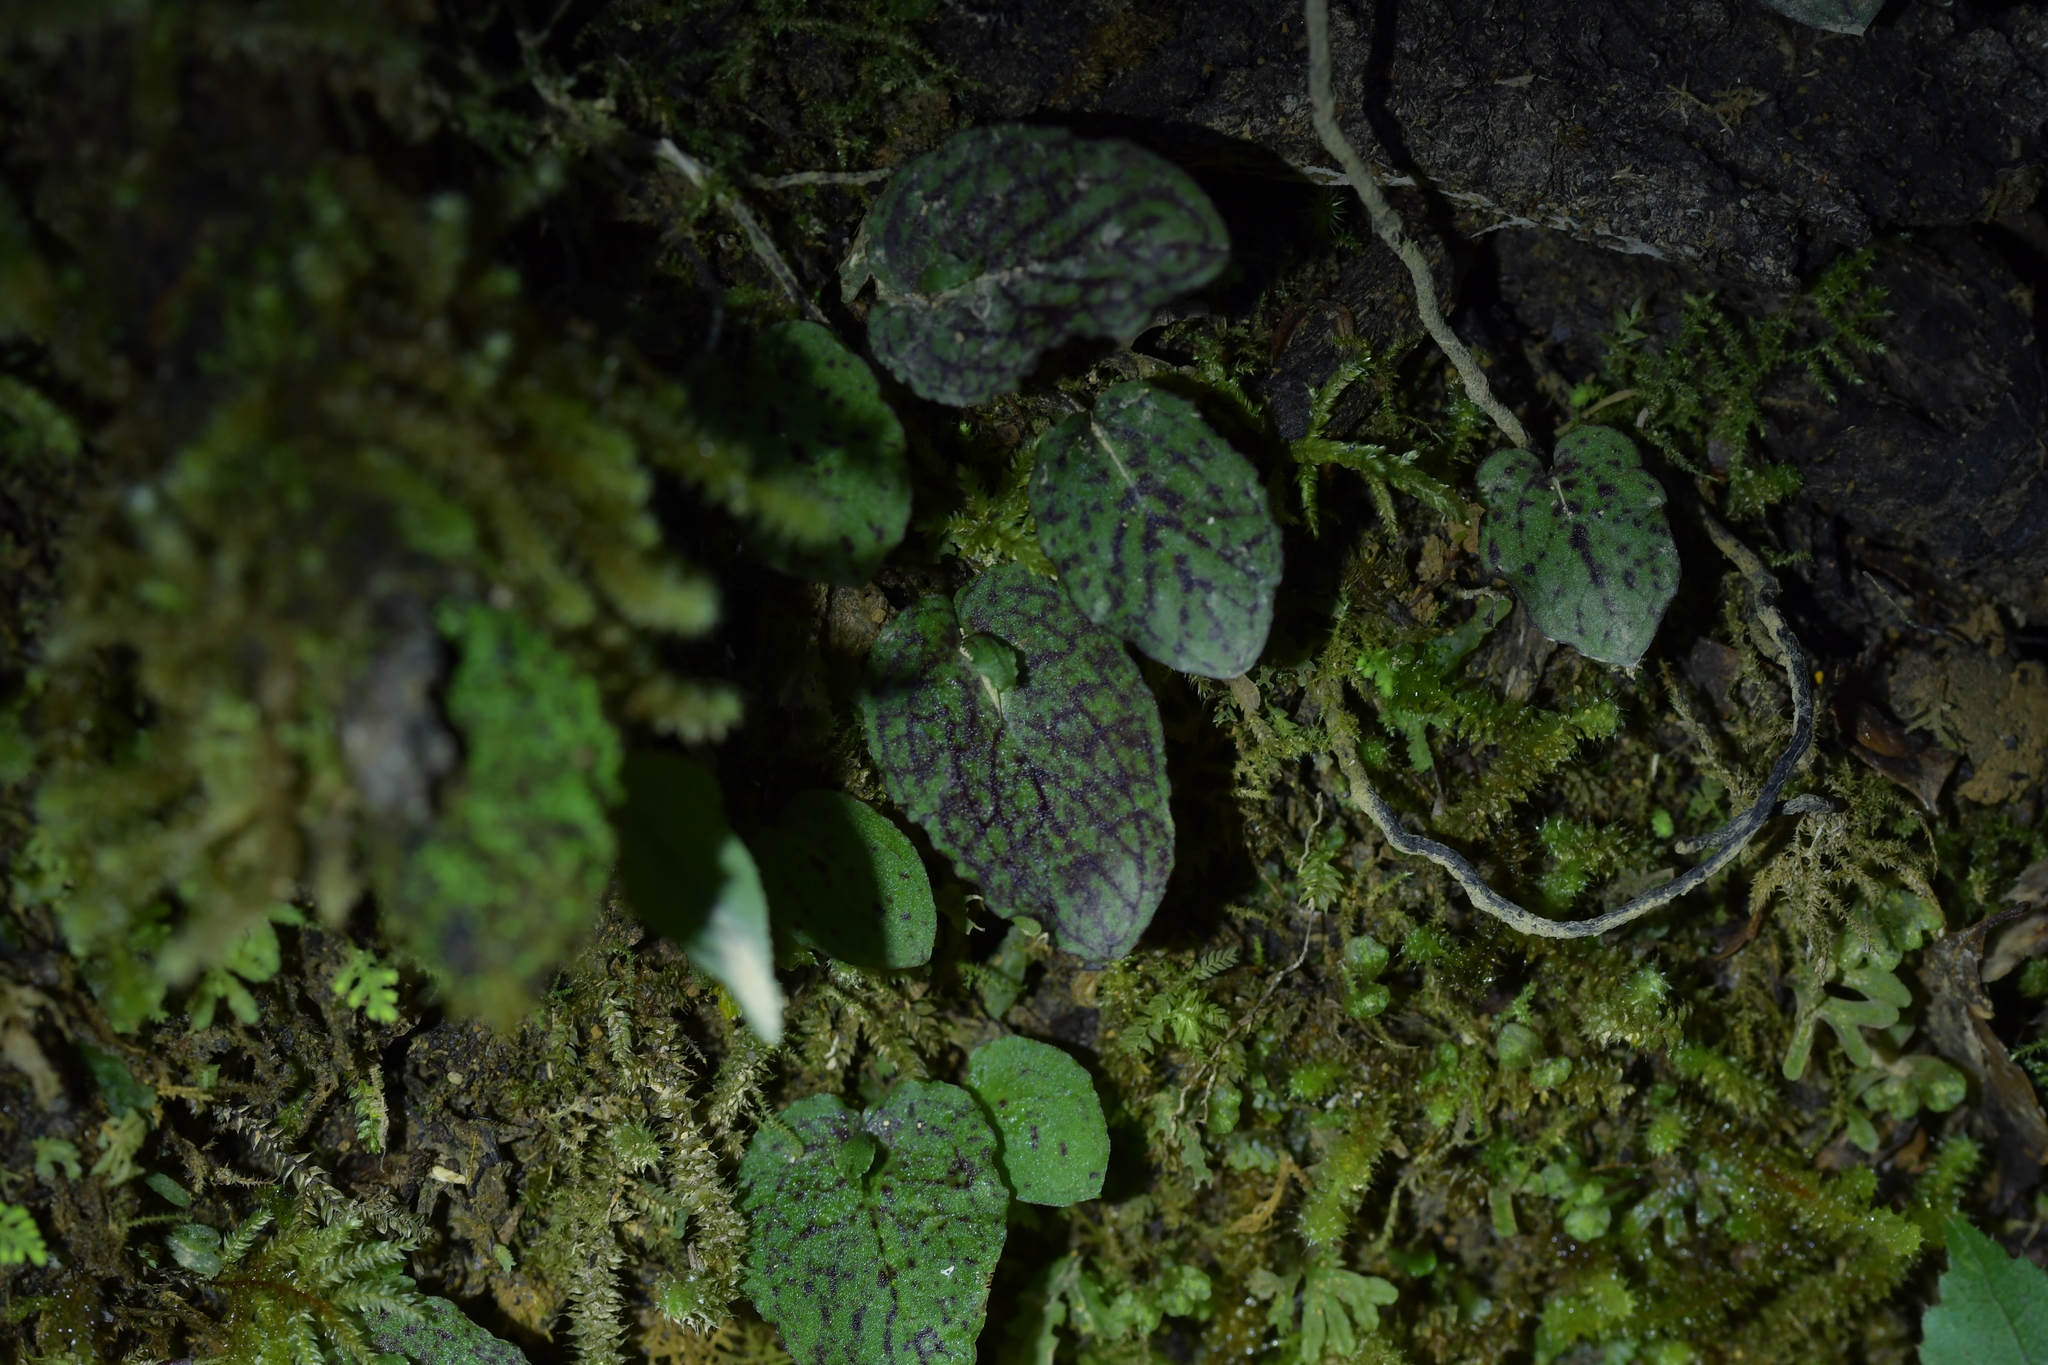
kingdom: Plantae
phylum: Tracheophyta
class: Liliopsida
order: Asparagales
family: Orchidaceae
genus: Corybas
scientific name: Corybas oblongus
